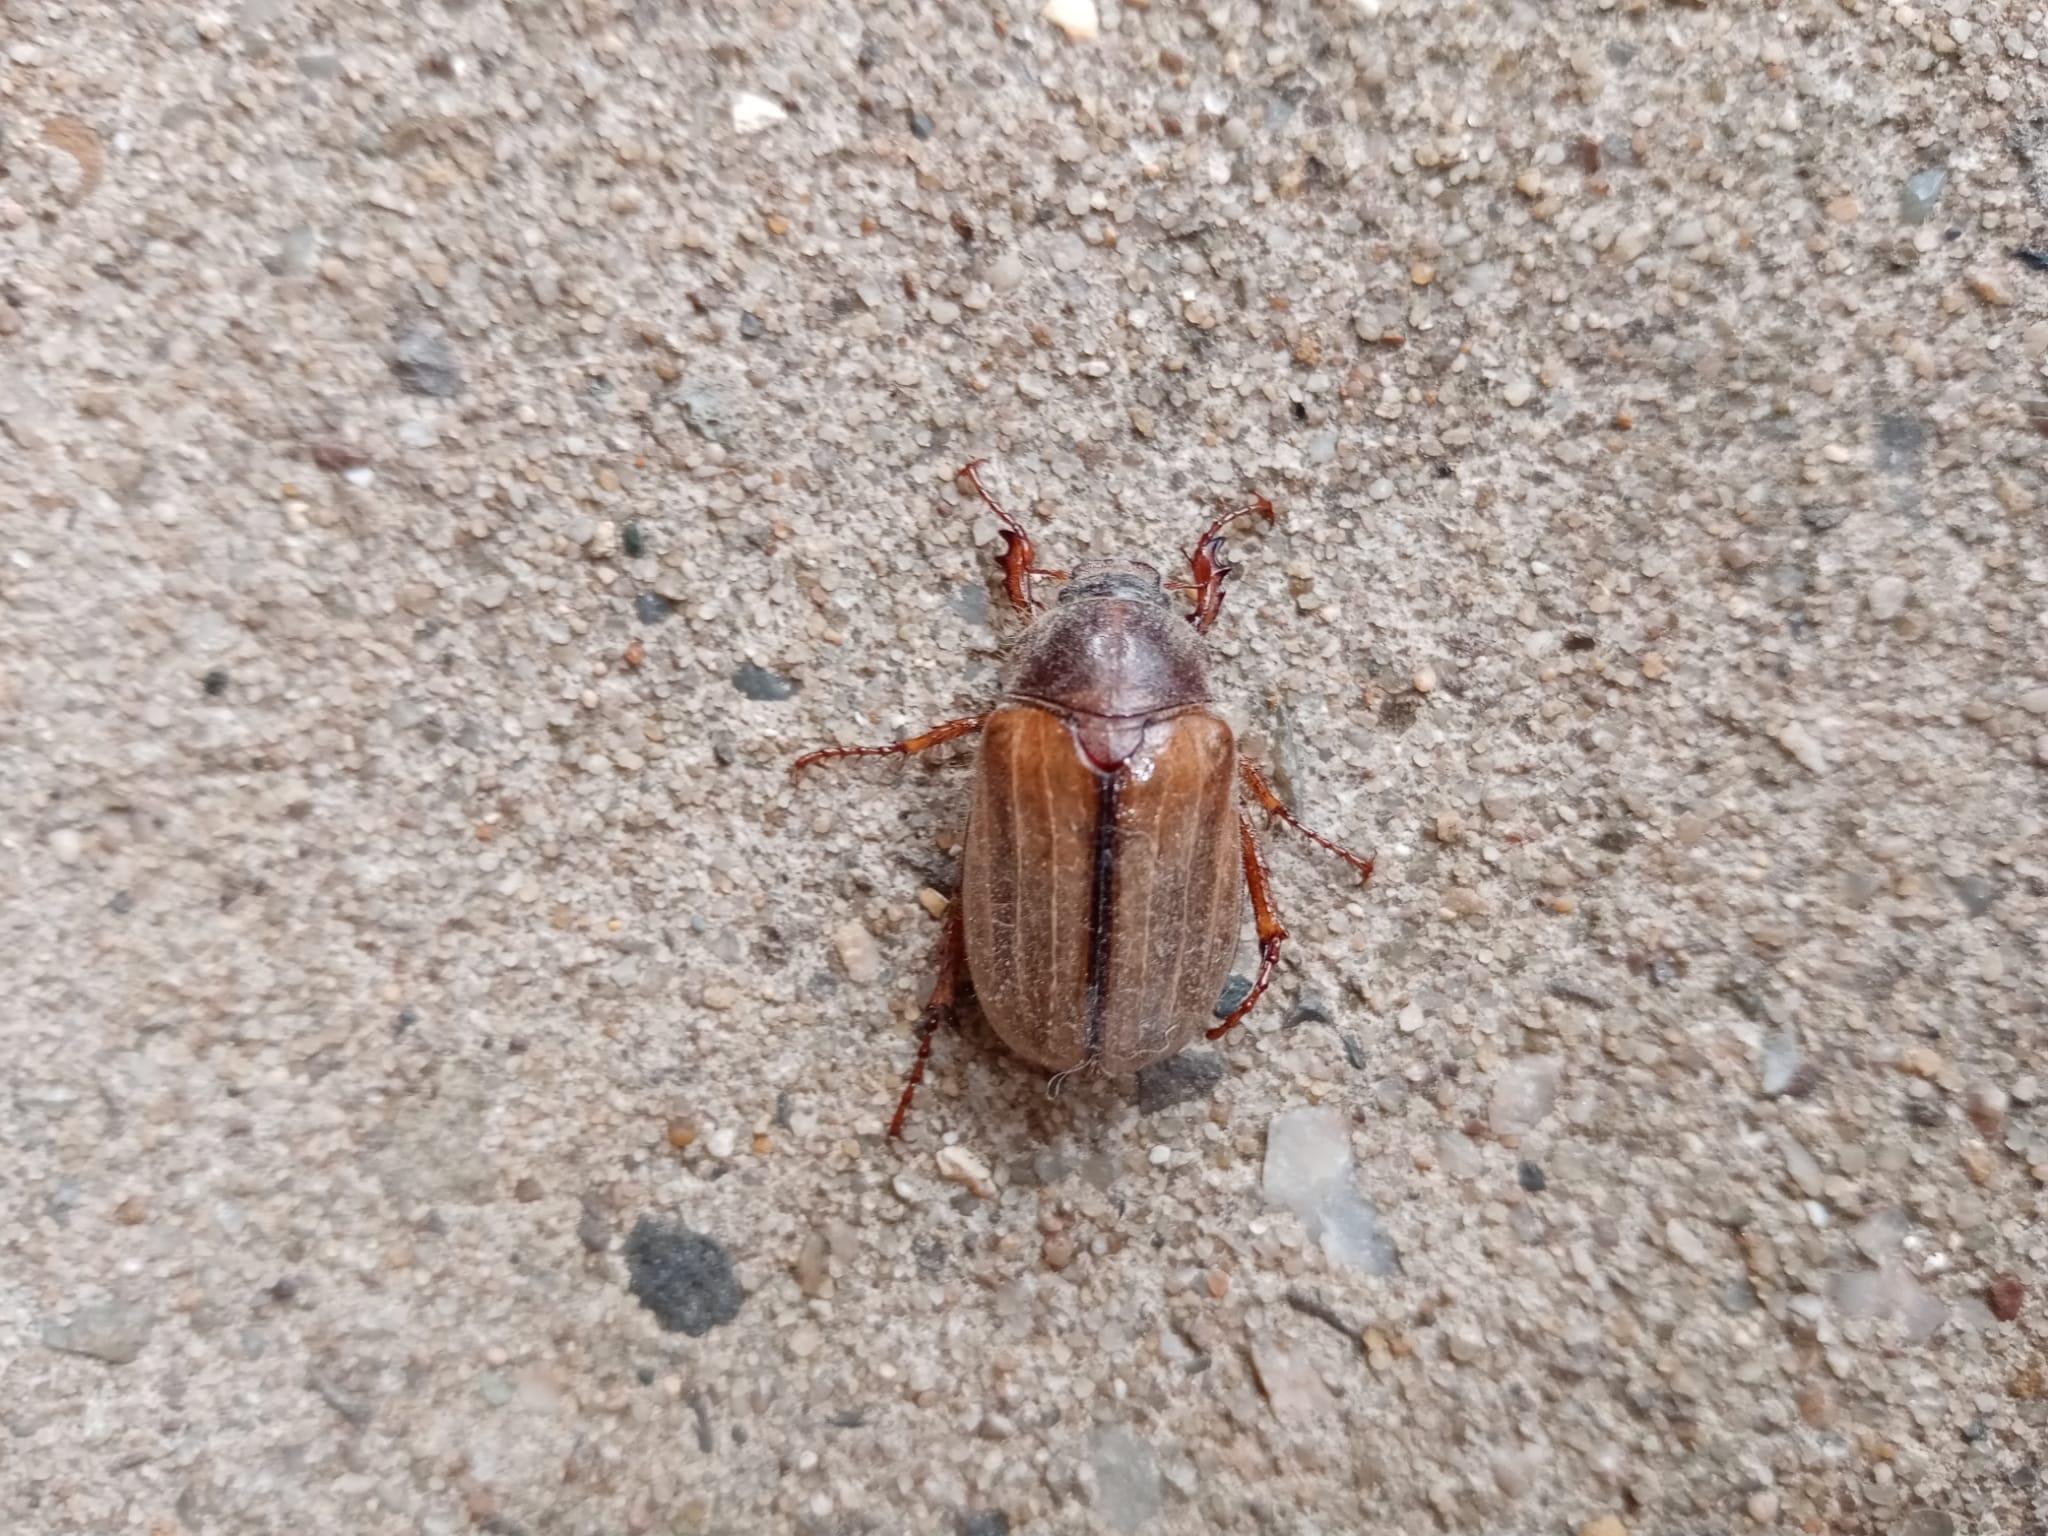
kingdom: Animalia
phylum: Arthropoda
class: Insecta
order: Coleoptera
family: Scarabaeidae
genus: Amphimallon
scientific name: Amphimallon solstitiale
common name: Summer chafer
